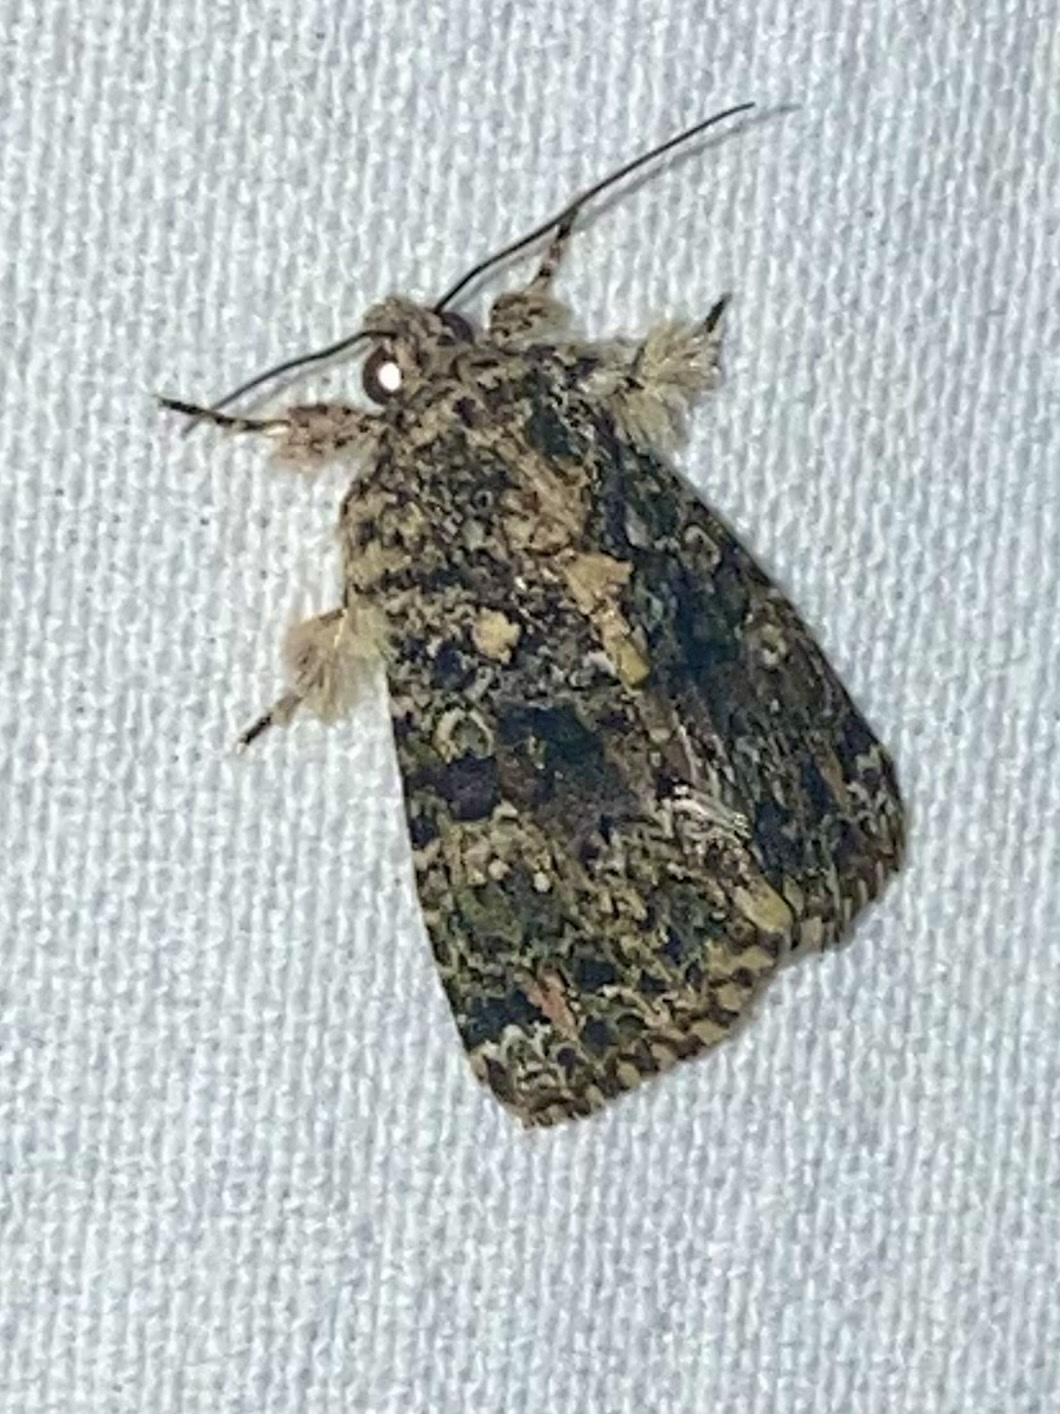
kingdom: Animalia
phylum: Arthropoda
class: Insecta
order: Lepidoptera
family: Noctuidae
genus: Callopistria
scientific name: Callopistria latreillei
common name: Latreille's latin
